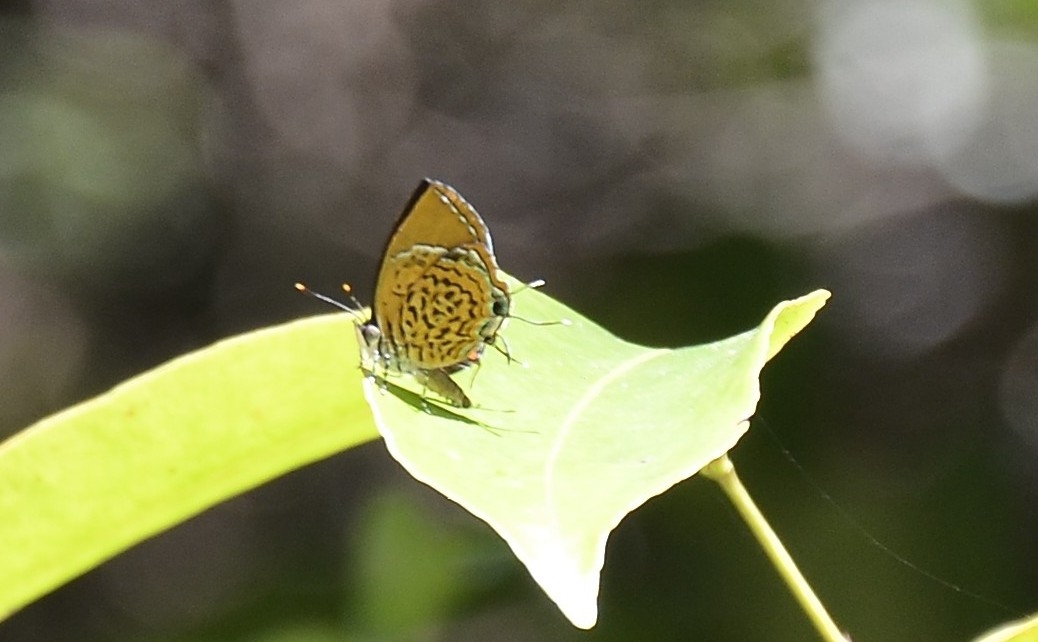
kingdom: Animalia
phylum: Arthropoda
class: Insecta
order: Lepidoptera
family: Lycaenidae
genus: Rathinda
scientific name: Rathinda amor
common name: Monkey puzzle
